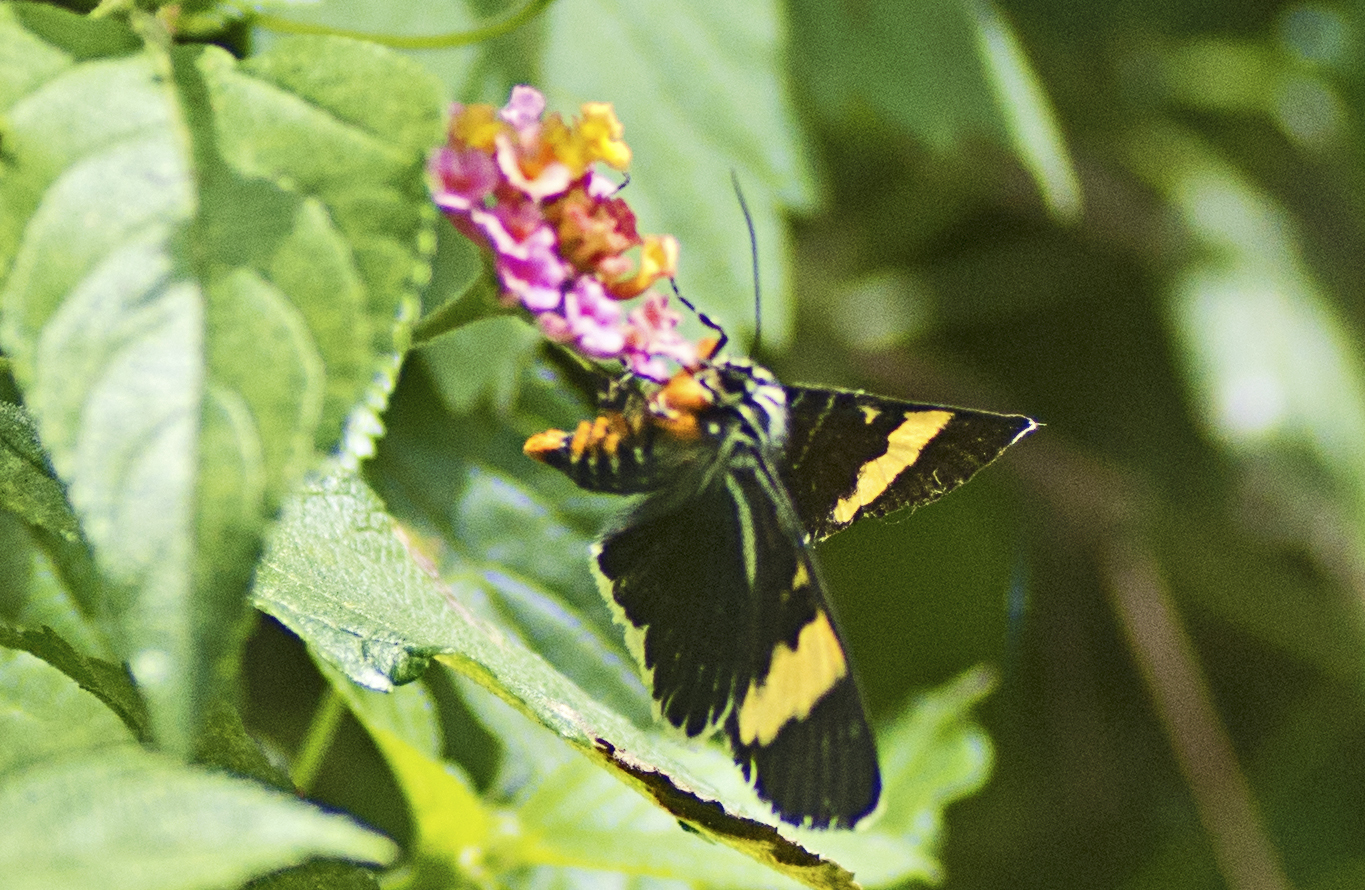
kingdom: Animalia
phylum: Arthropoda
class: Insecta
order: Lepidoptera
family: Noctuidae
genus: Phalaenoides
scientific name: Phalaenoides glycinae
